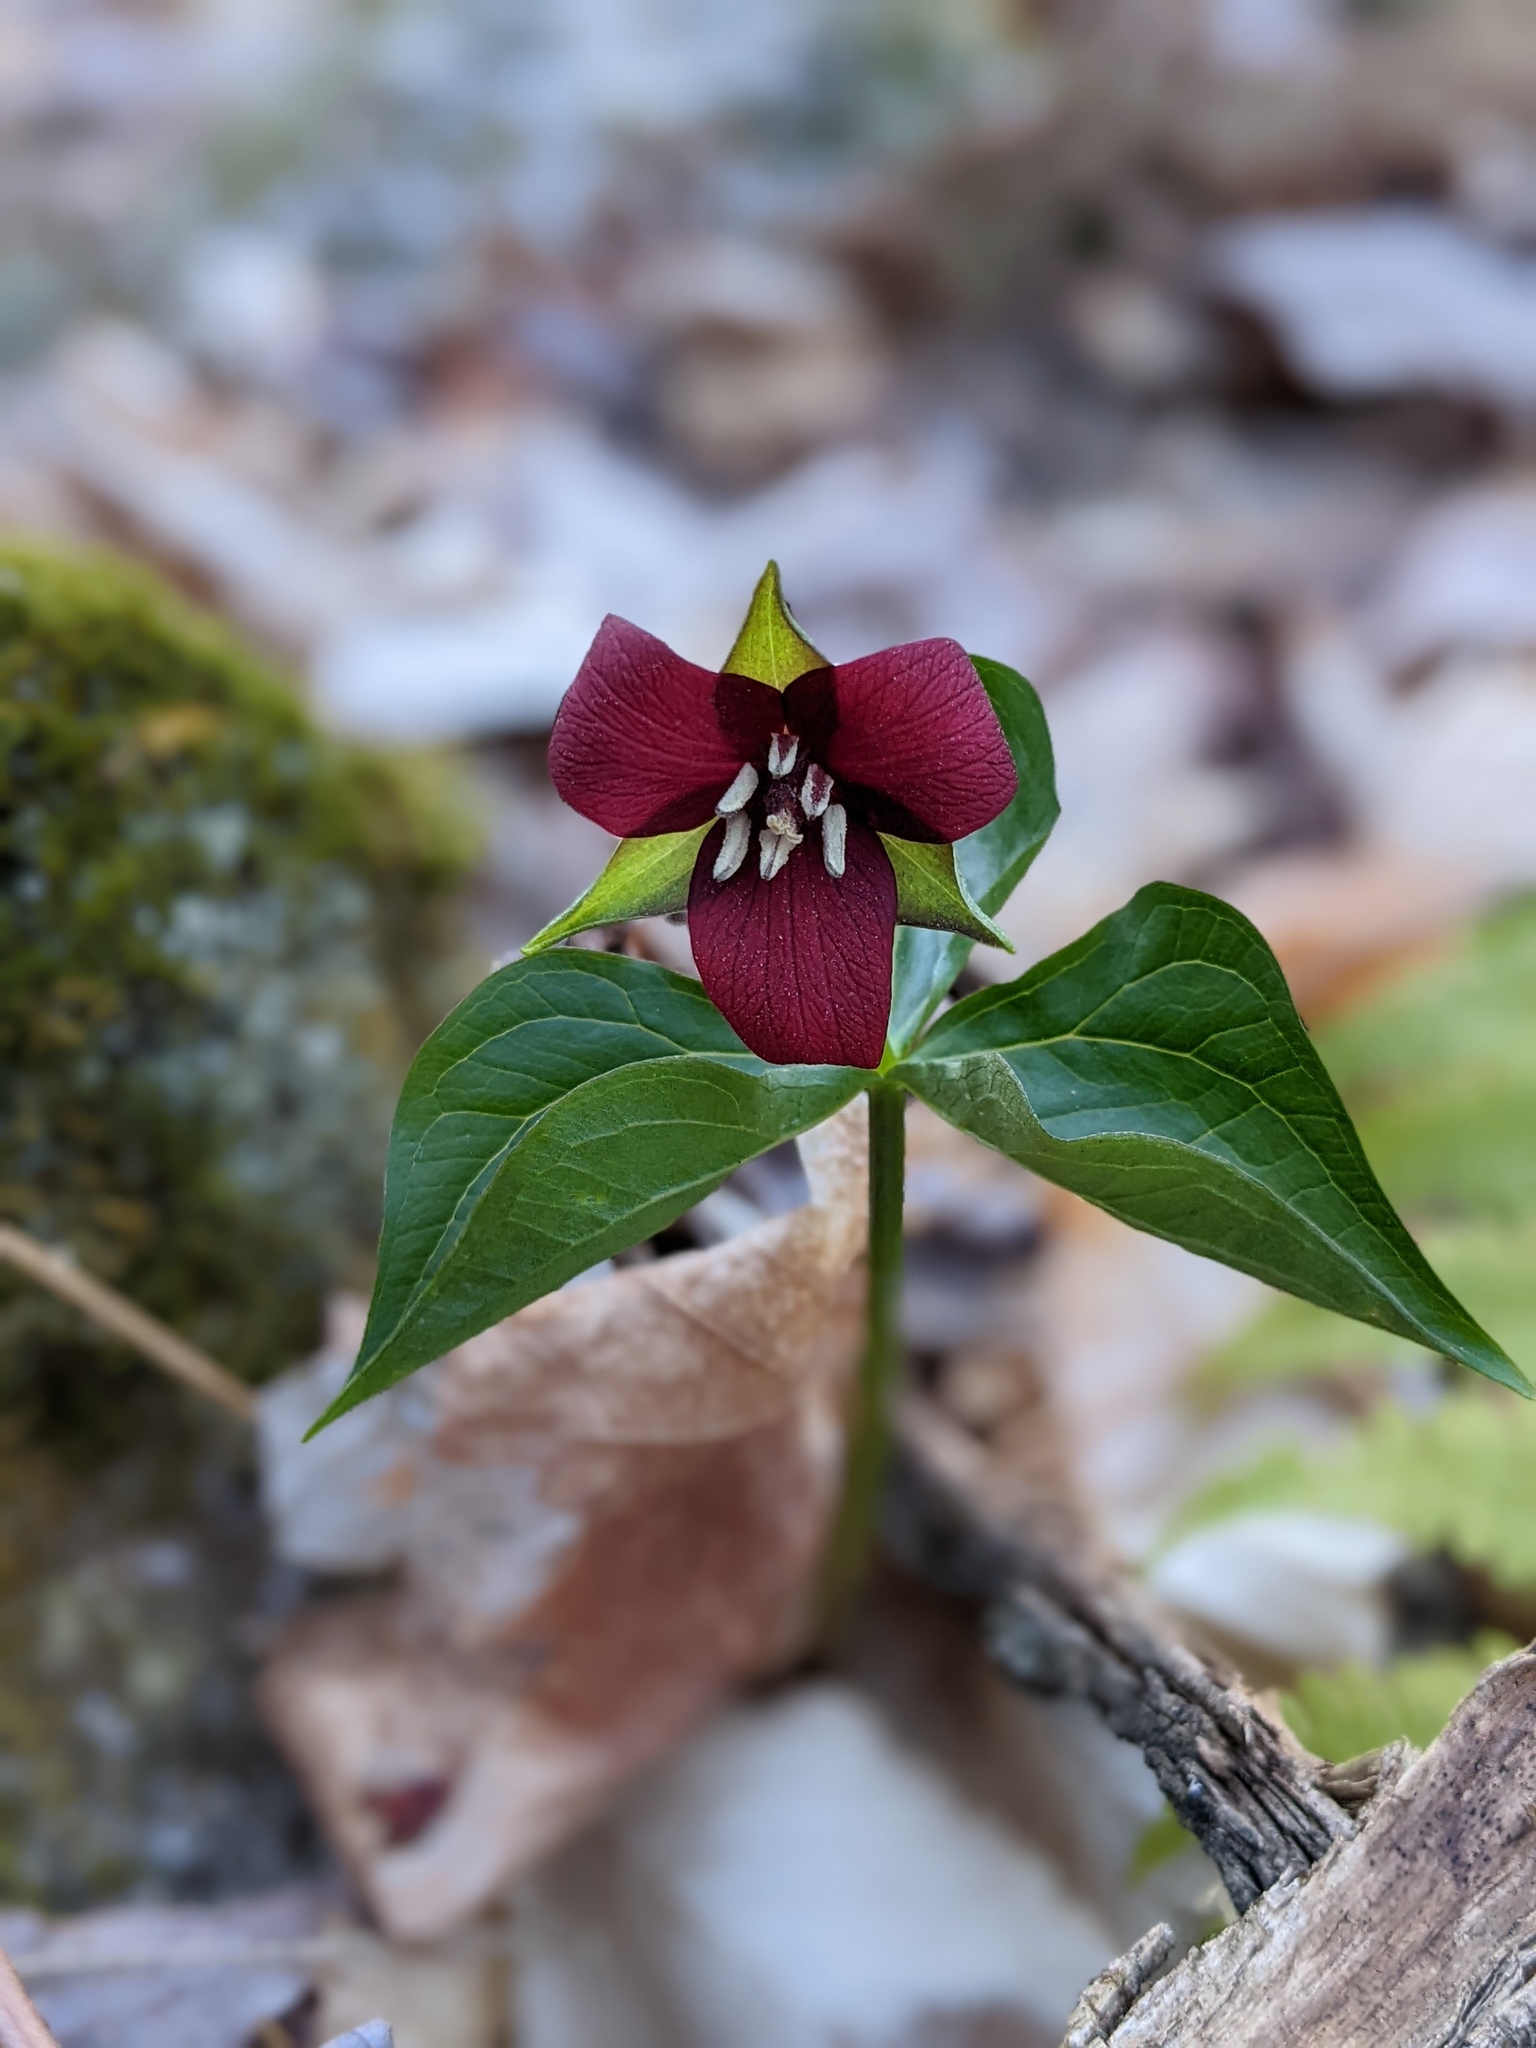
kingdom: Plantae
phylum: Tracheophyta
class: Liliopsida
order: Liliales
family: Melanthiaceae
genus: Trillium
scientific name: Trillium erectum
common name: Purple trillium
